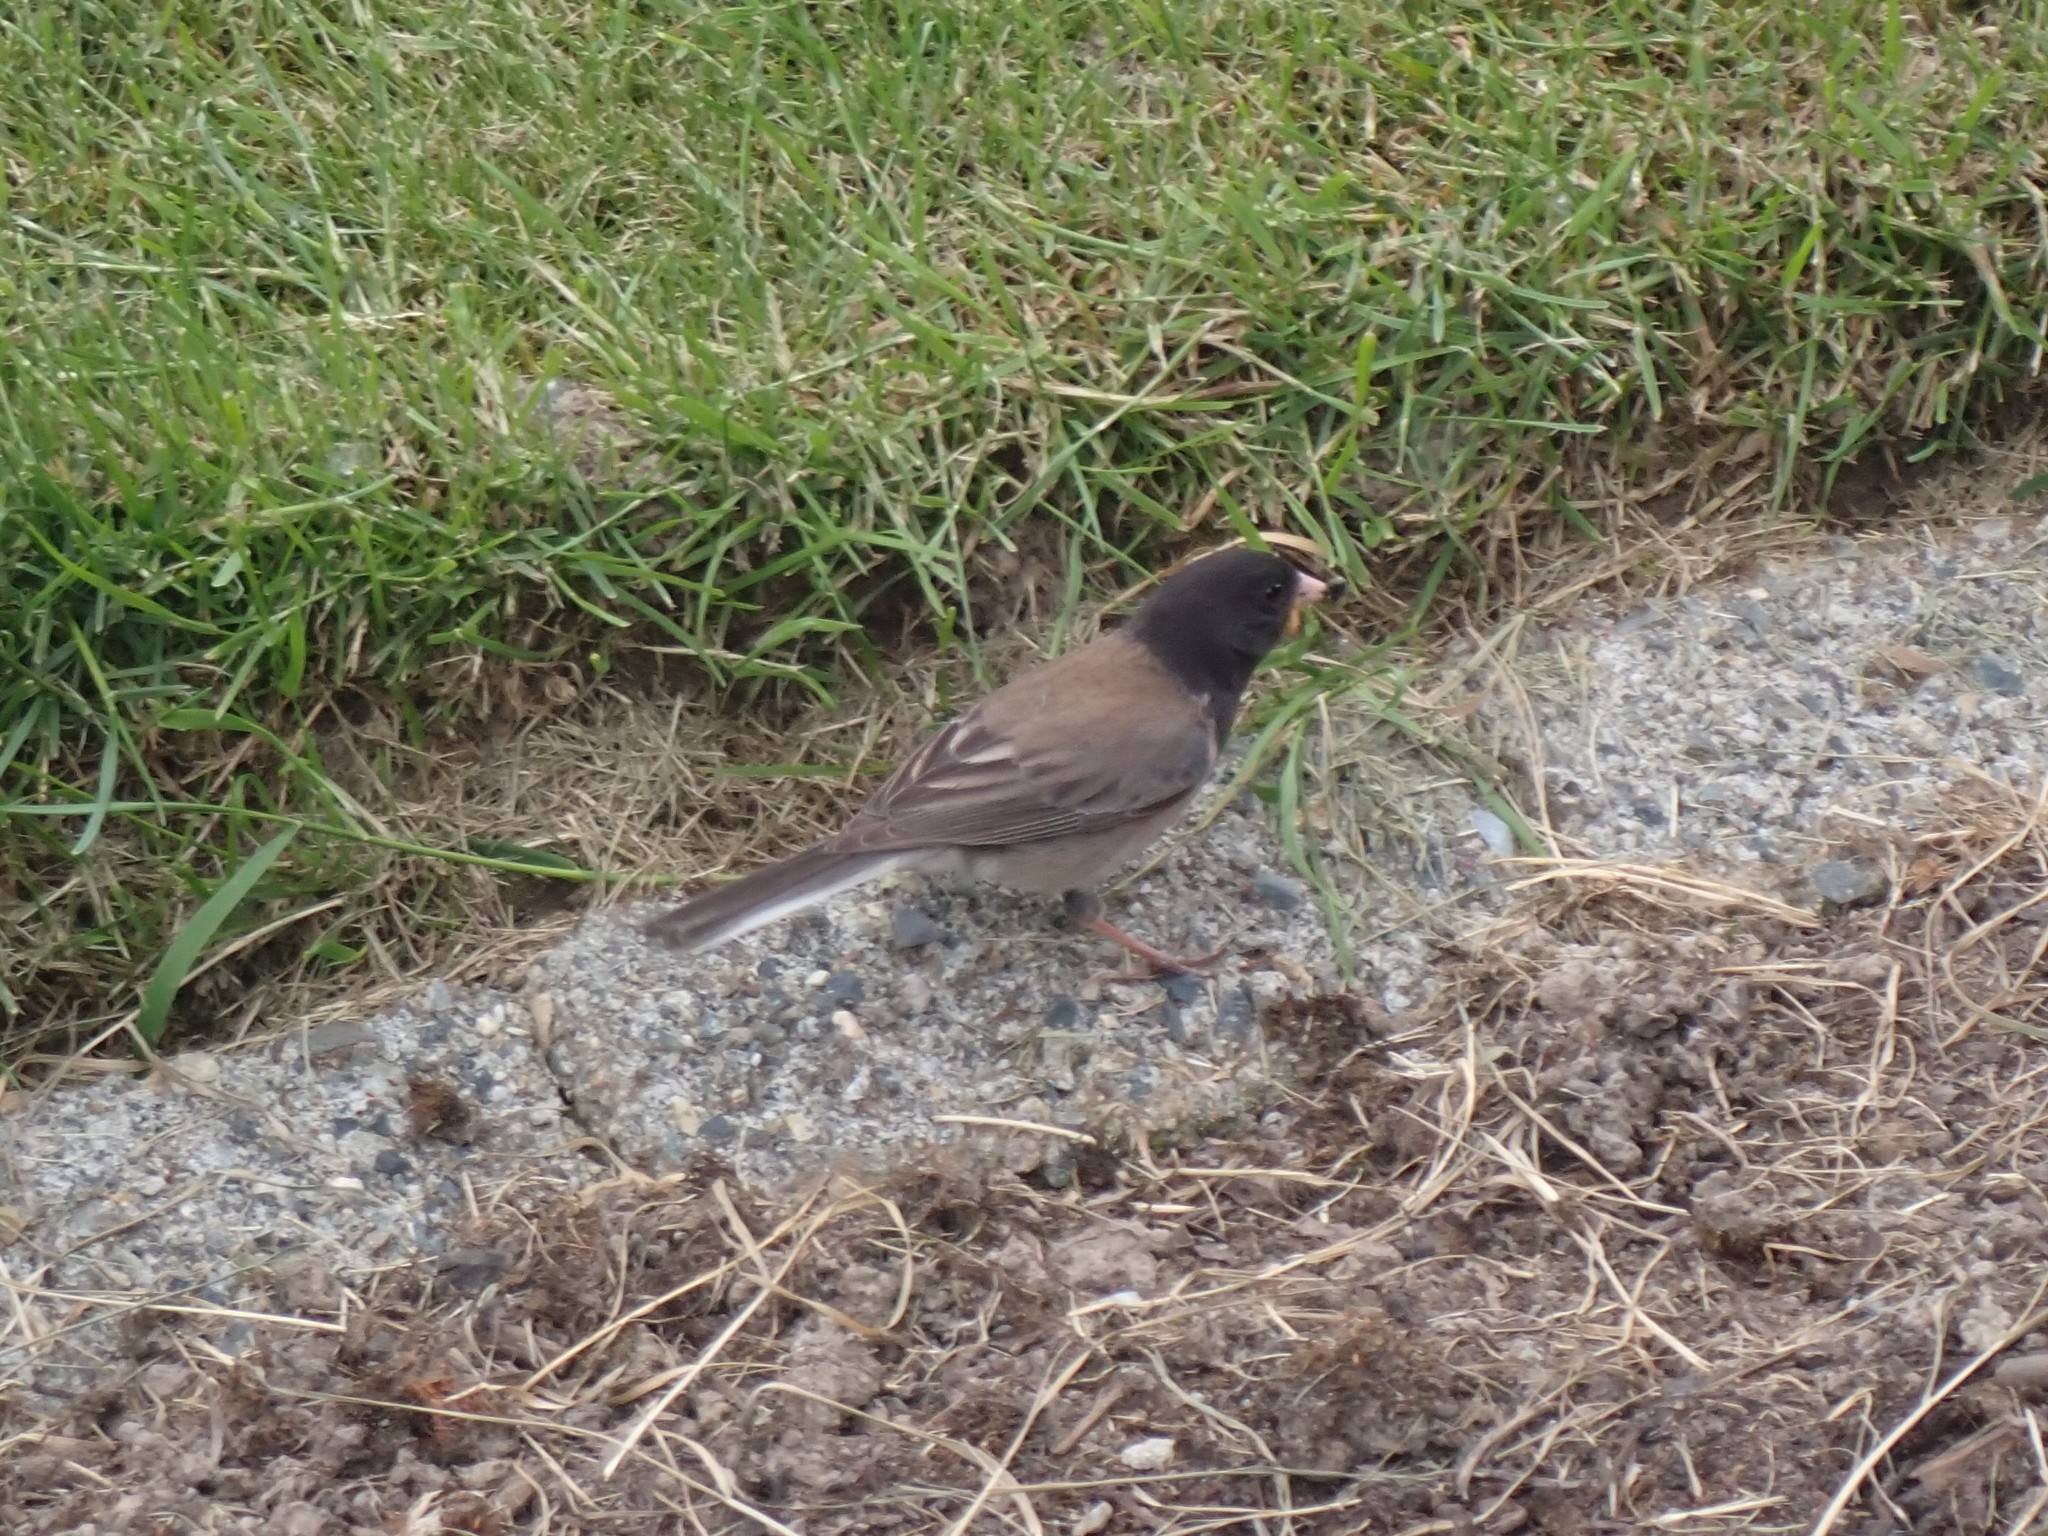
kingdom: Animalia
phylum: Chordata
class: Aves
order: Passeriformes
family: Passerellidae
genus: Junco
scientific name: Junco hyemalis
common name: Dark-eyed junco
